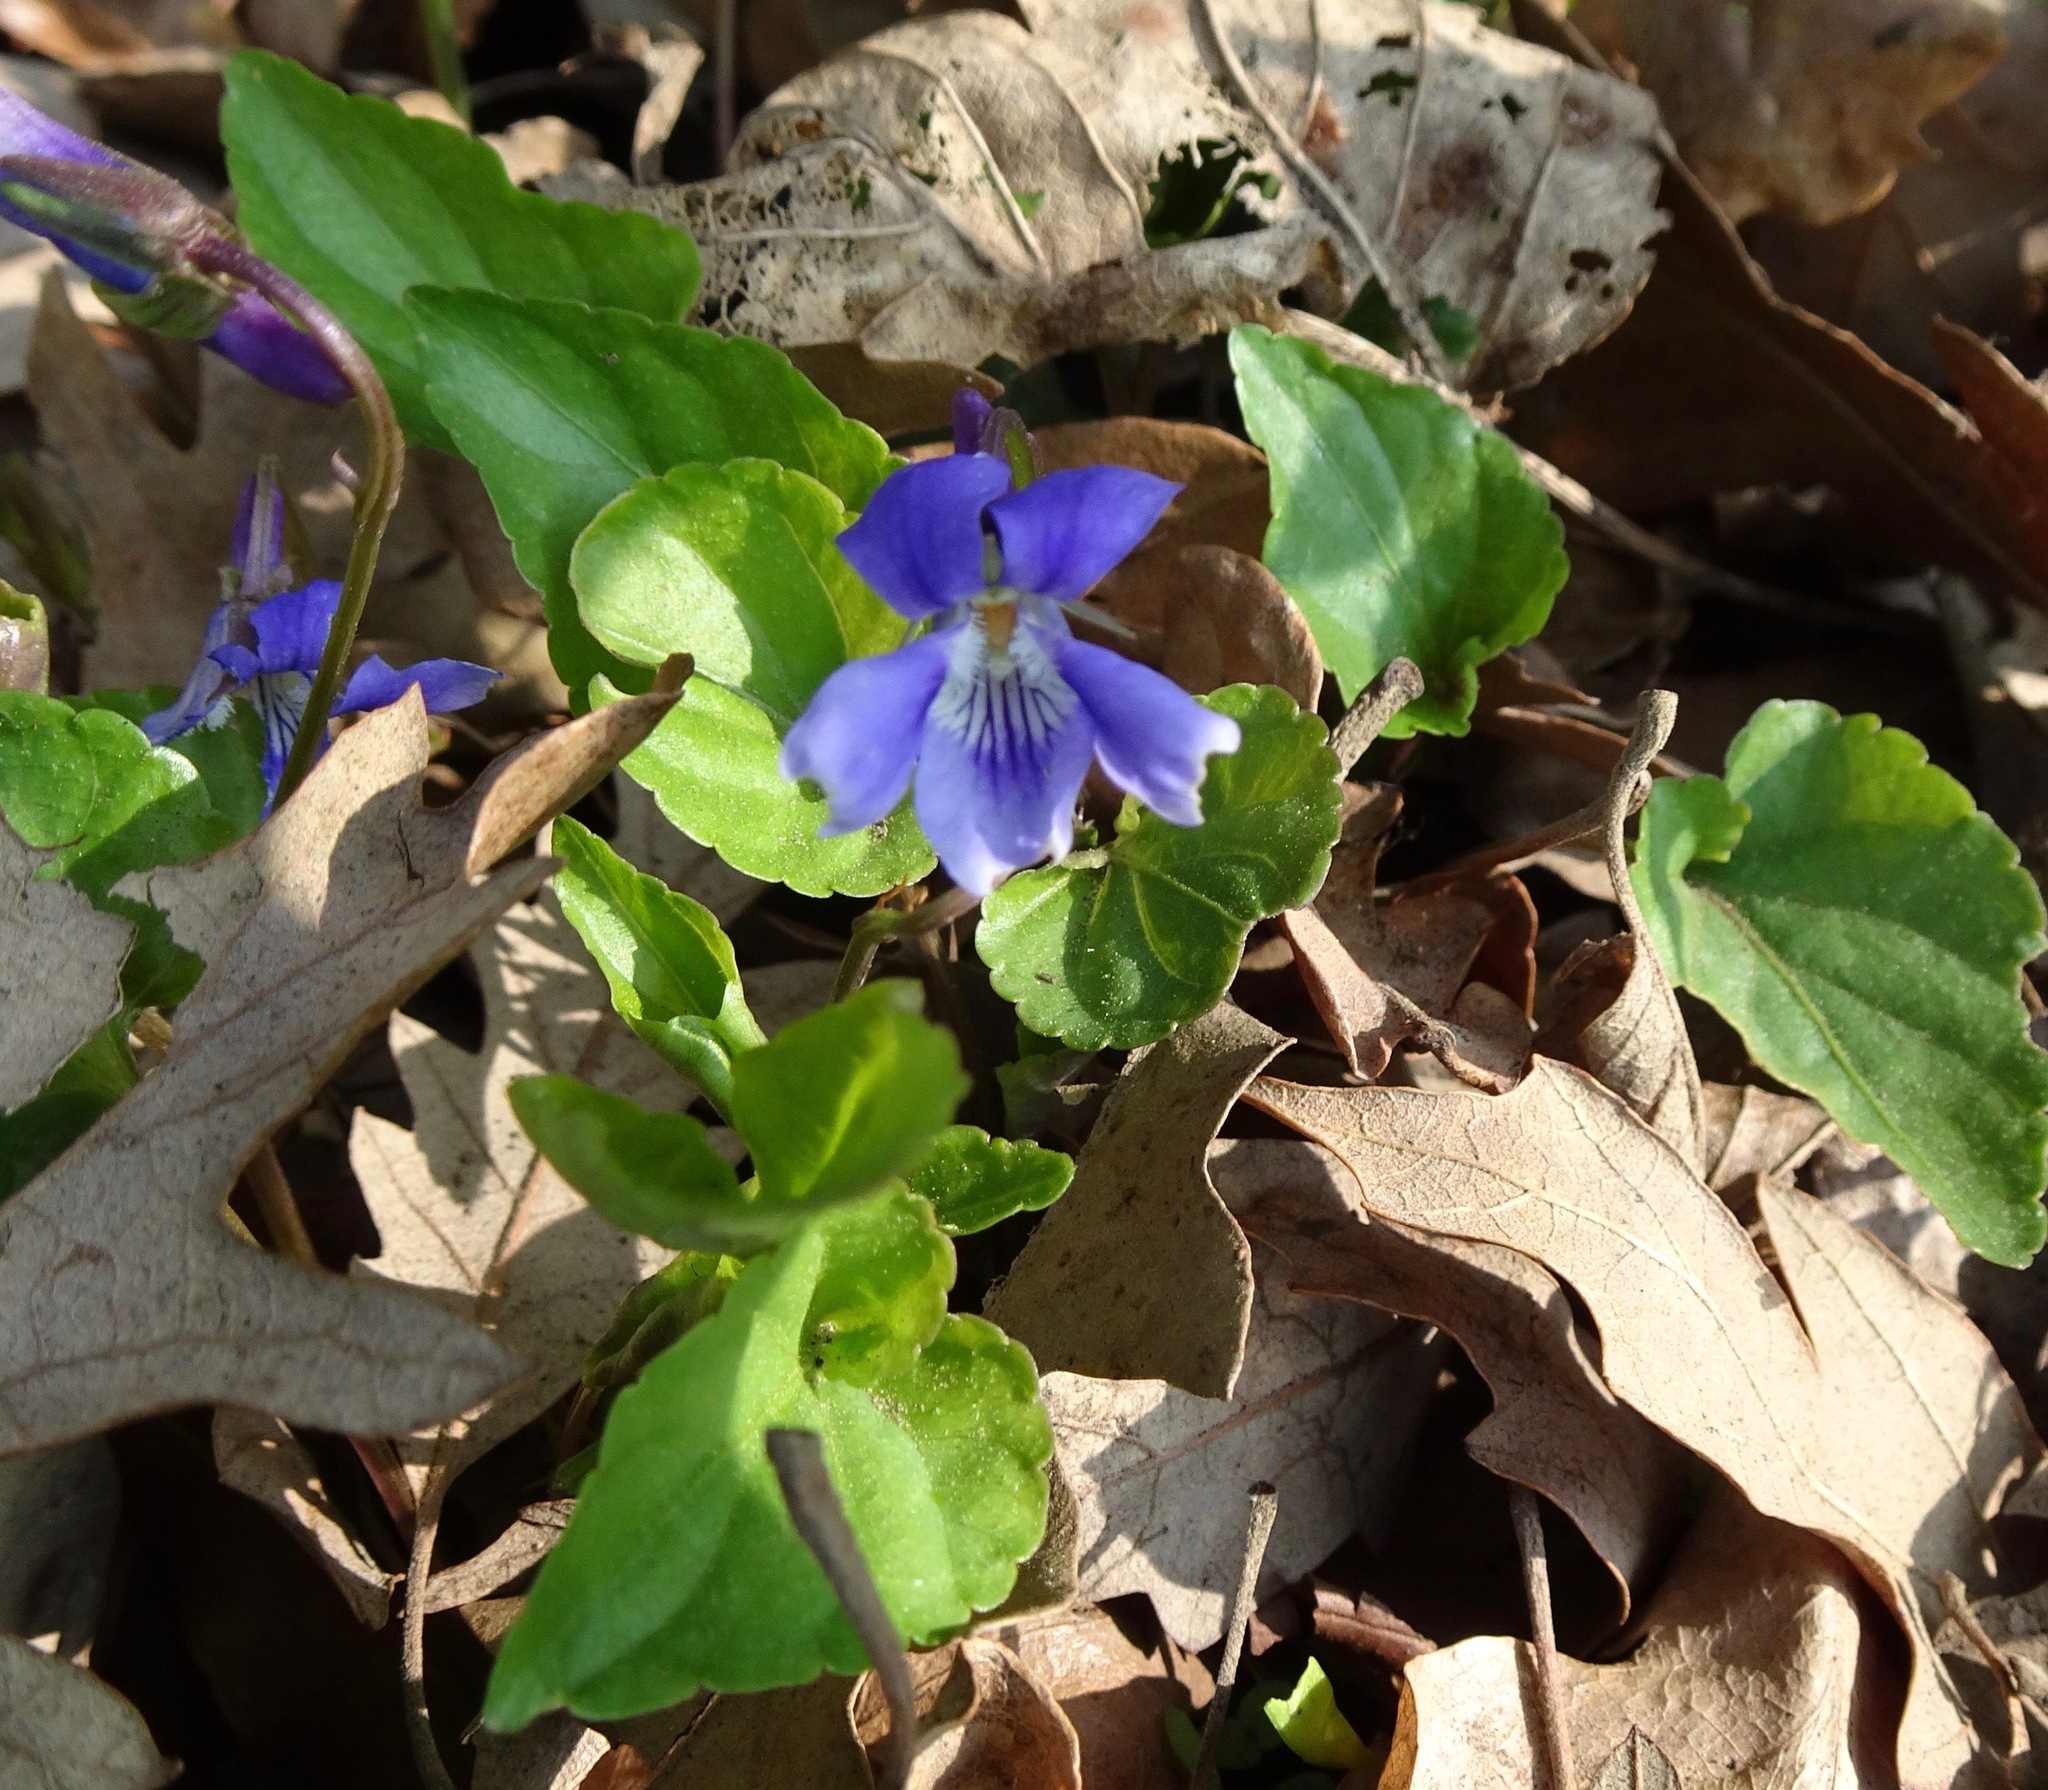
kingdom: Plantae
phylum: Tracheophyta
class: Magnoliopsida
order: Malpighiales
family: Violaceae
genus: Viola
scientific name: Viola reichenbachiana
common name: Early dog-violet
